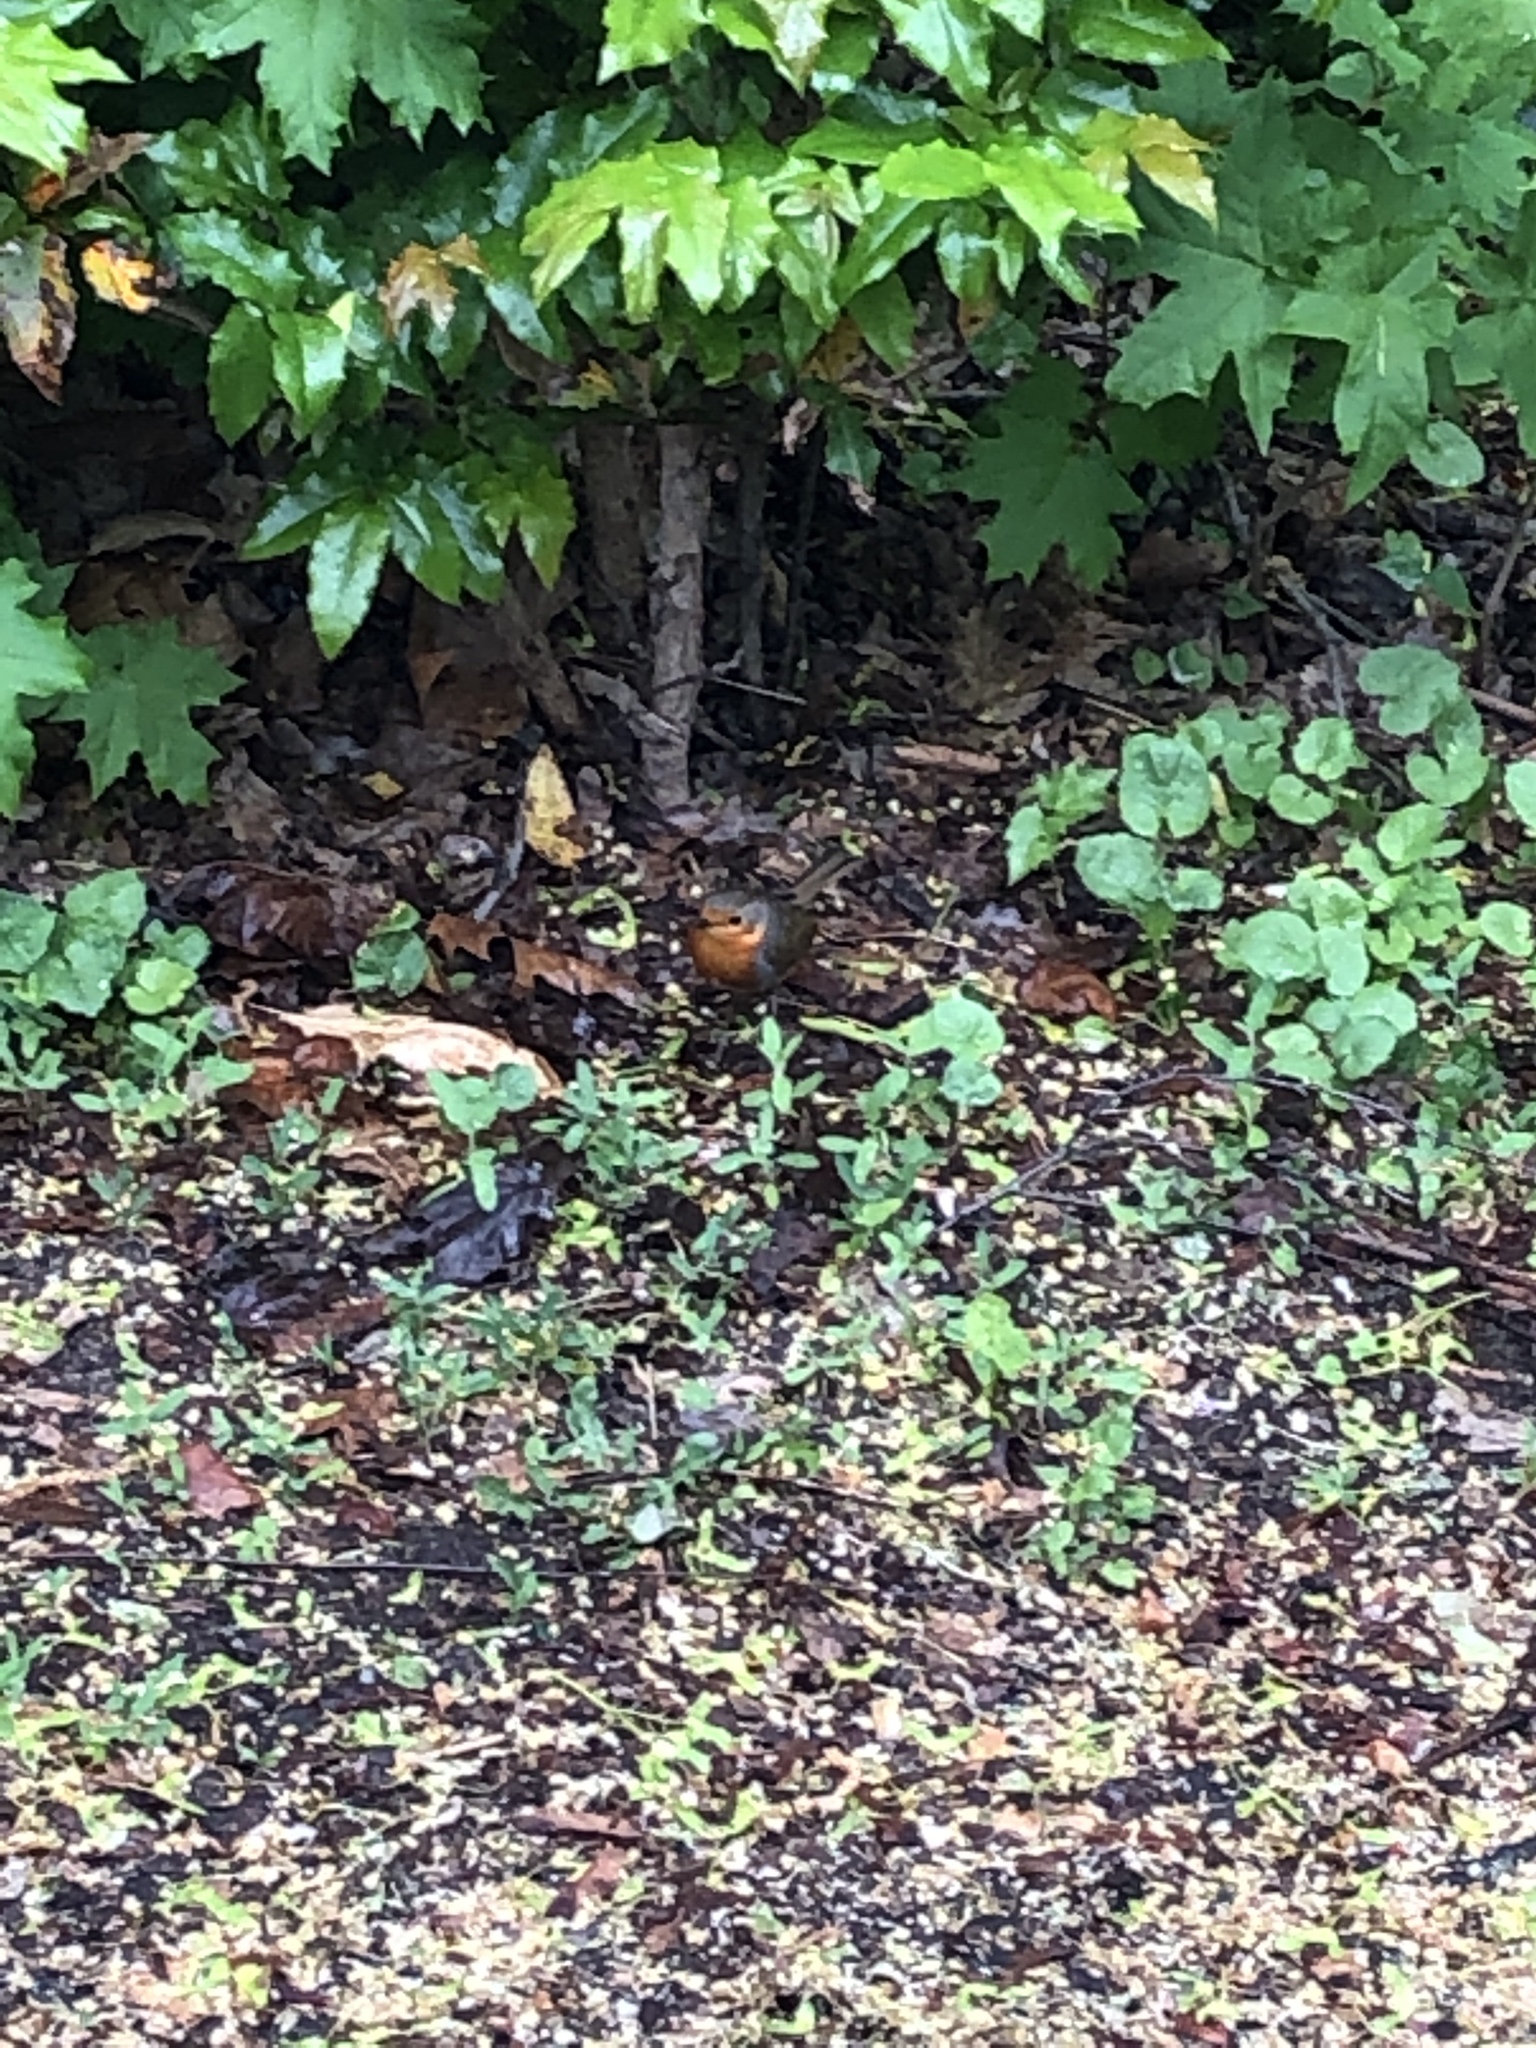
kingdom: Animalia
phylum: Chordata
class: Aves
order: Passeriformes
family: Muscicapidae
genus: Erithacus
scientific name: Erithacus rubecula
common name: European robin
